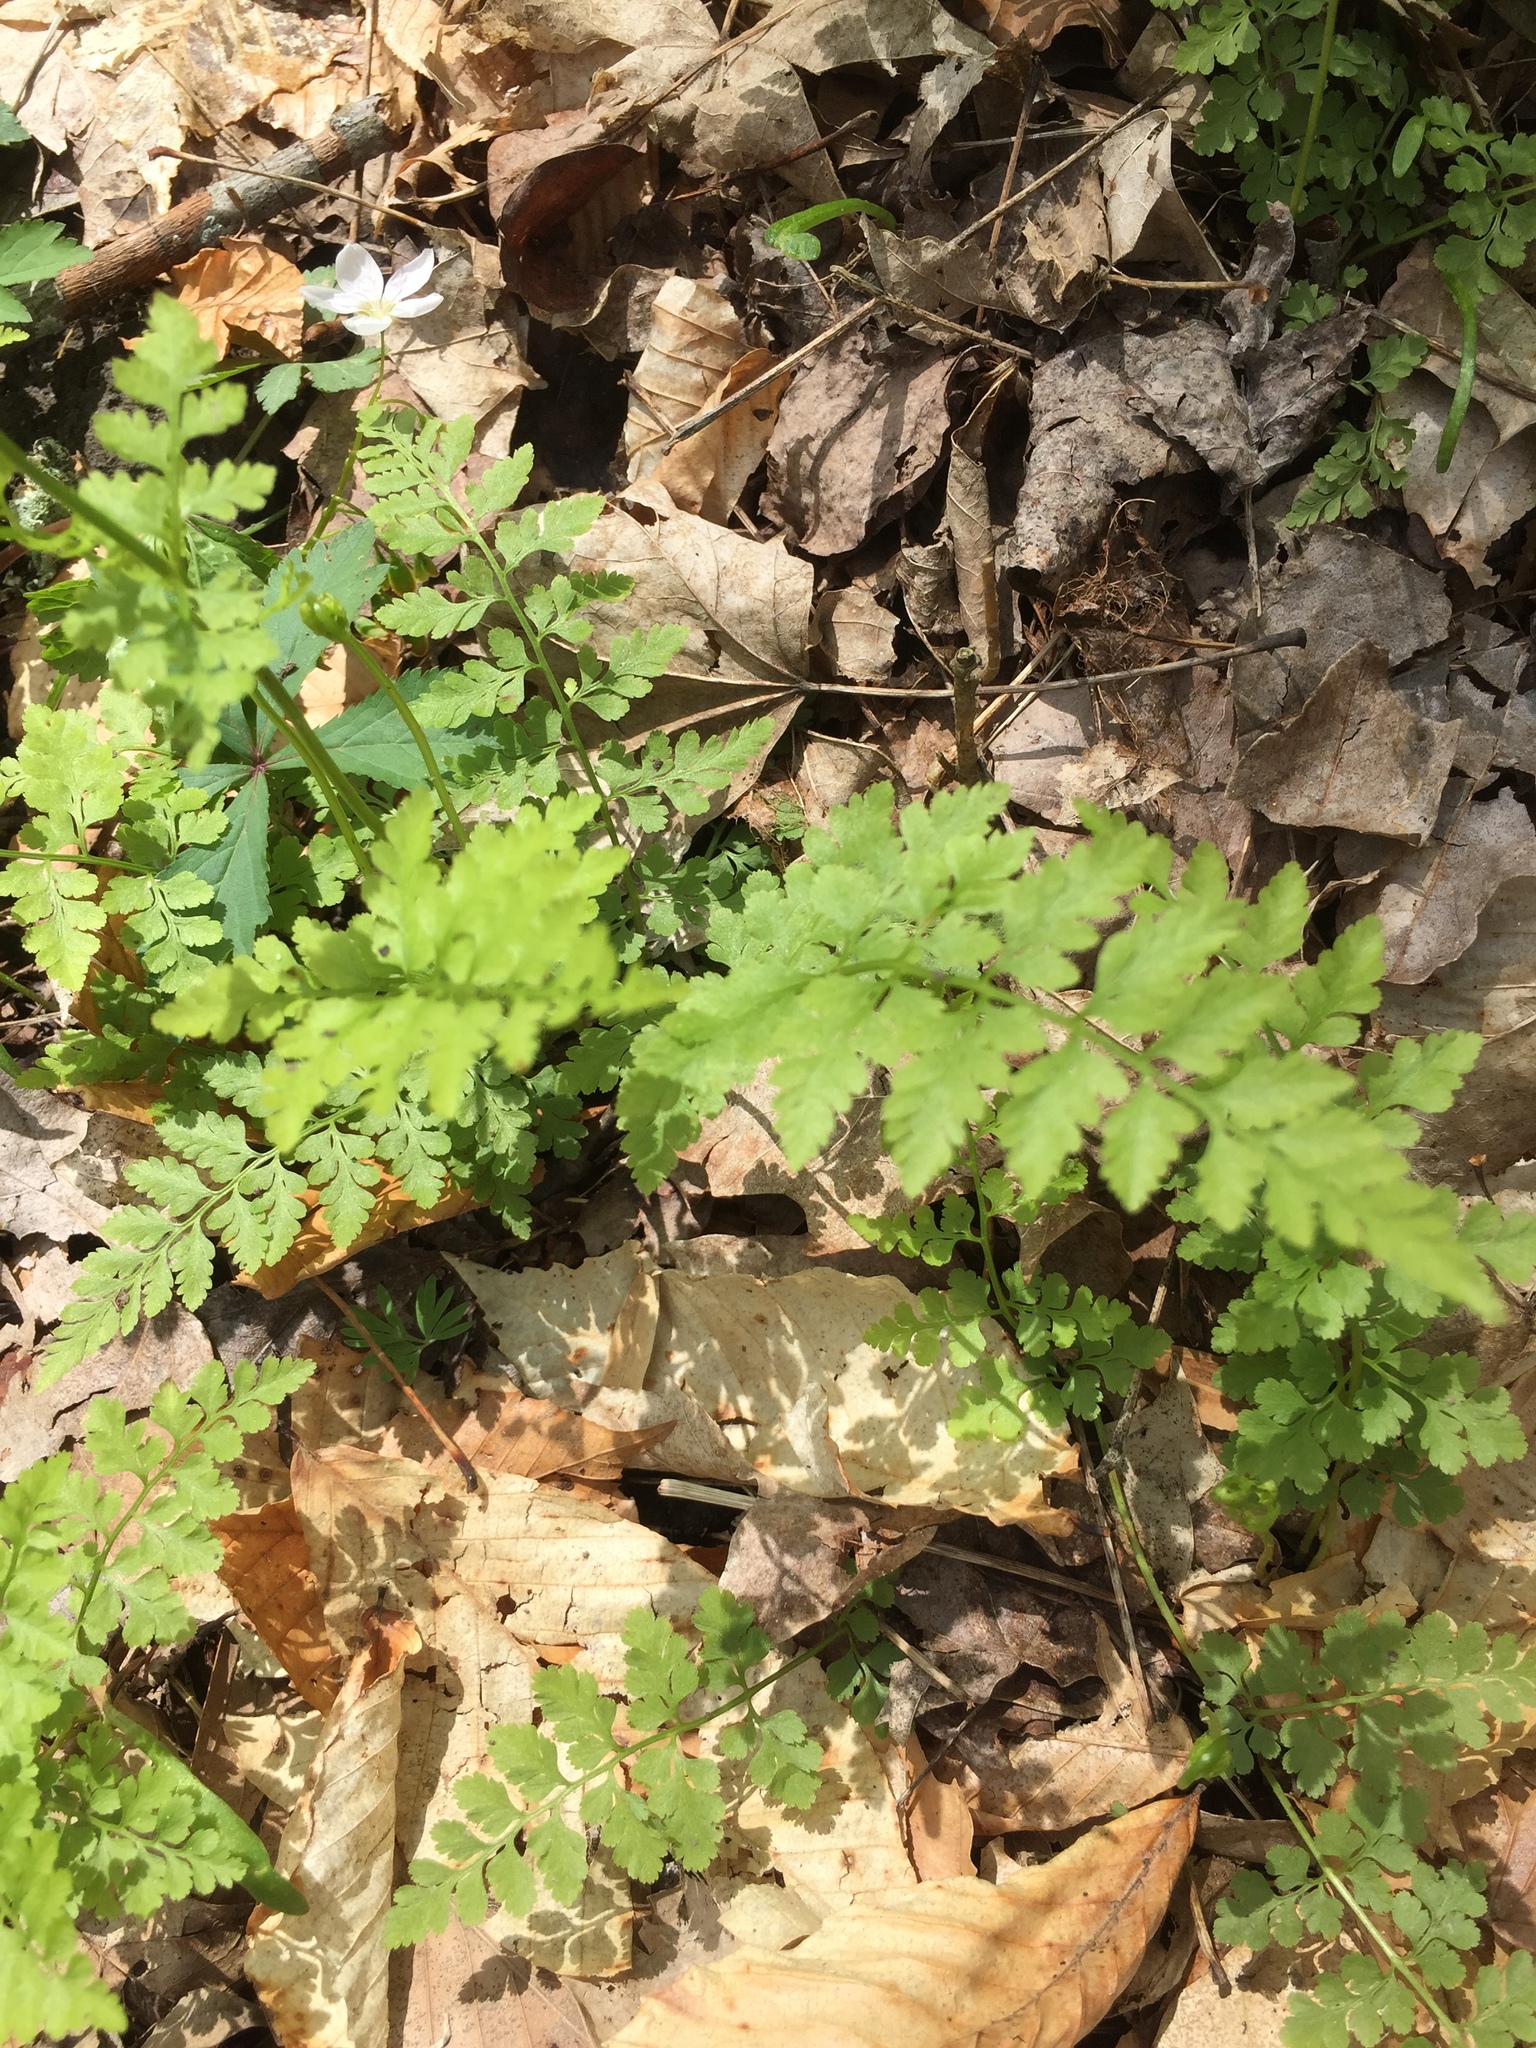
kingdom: Plantae
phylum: Tracheophyta
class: Polypodiopsida
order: Polypodiales
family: Cystopteridaceae
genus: Cystopteris
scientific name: Cystopteris protrusa
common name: Lowland brittle fern
